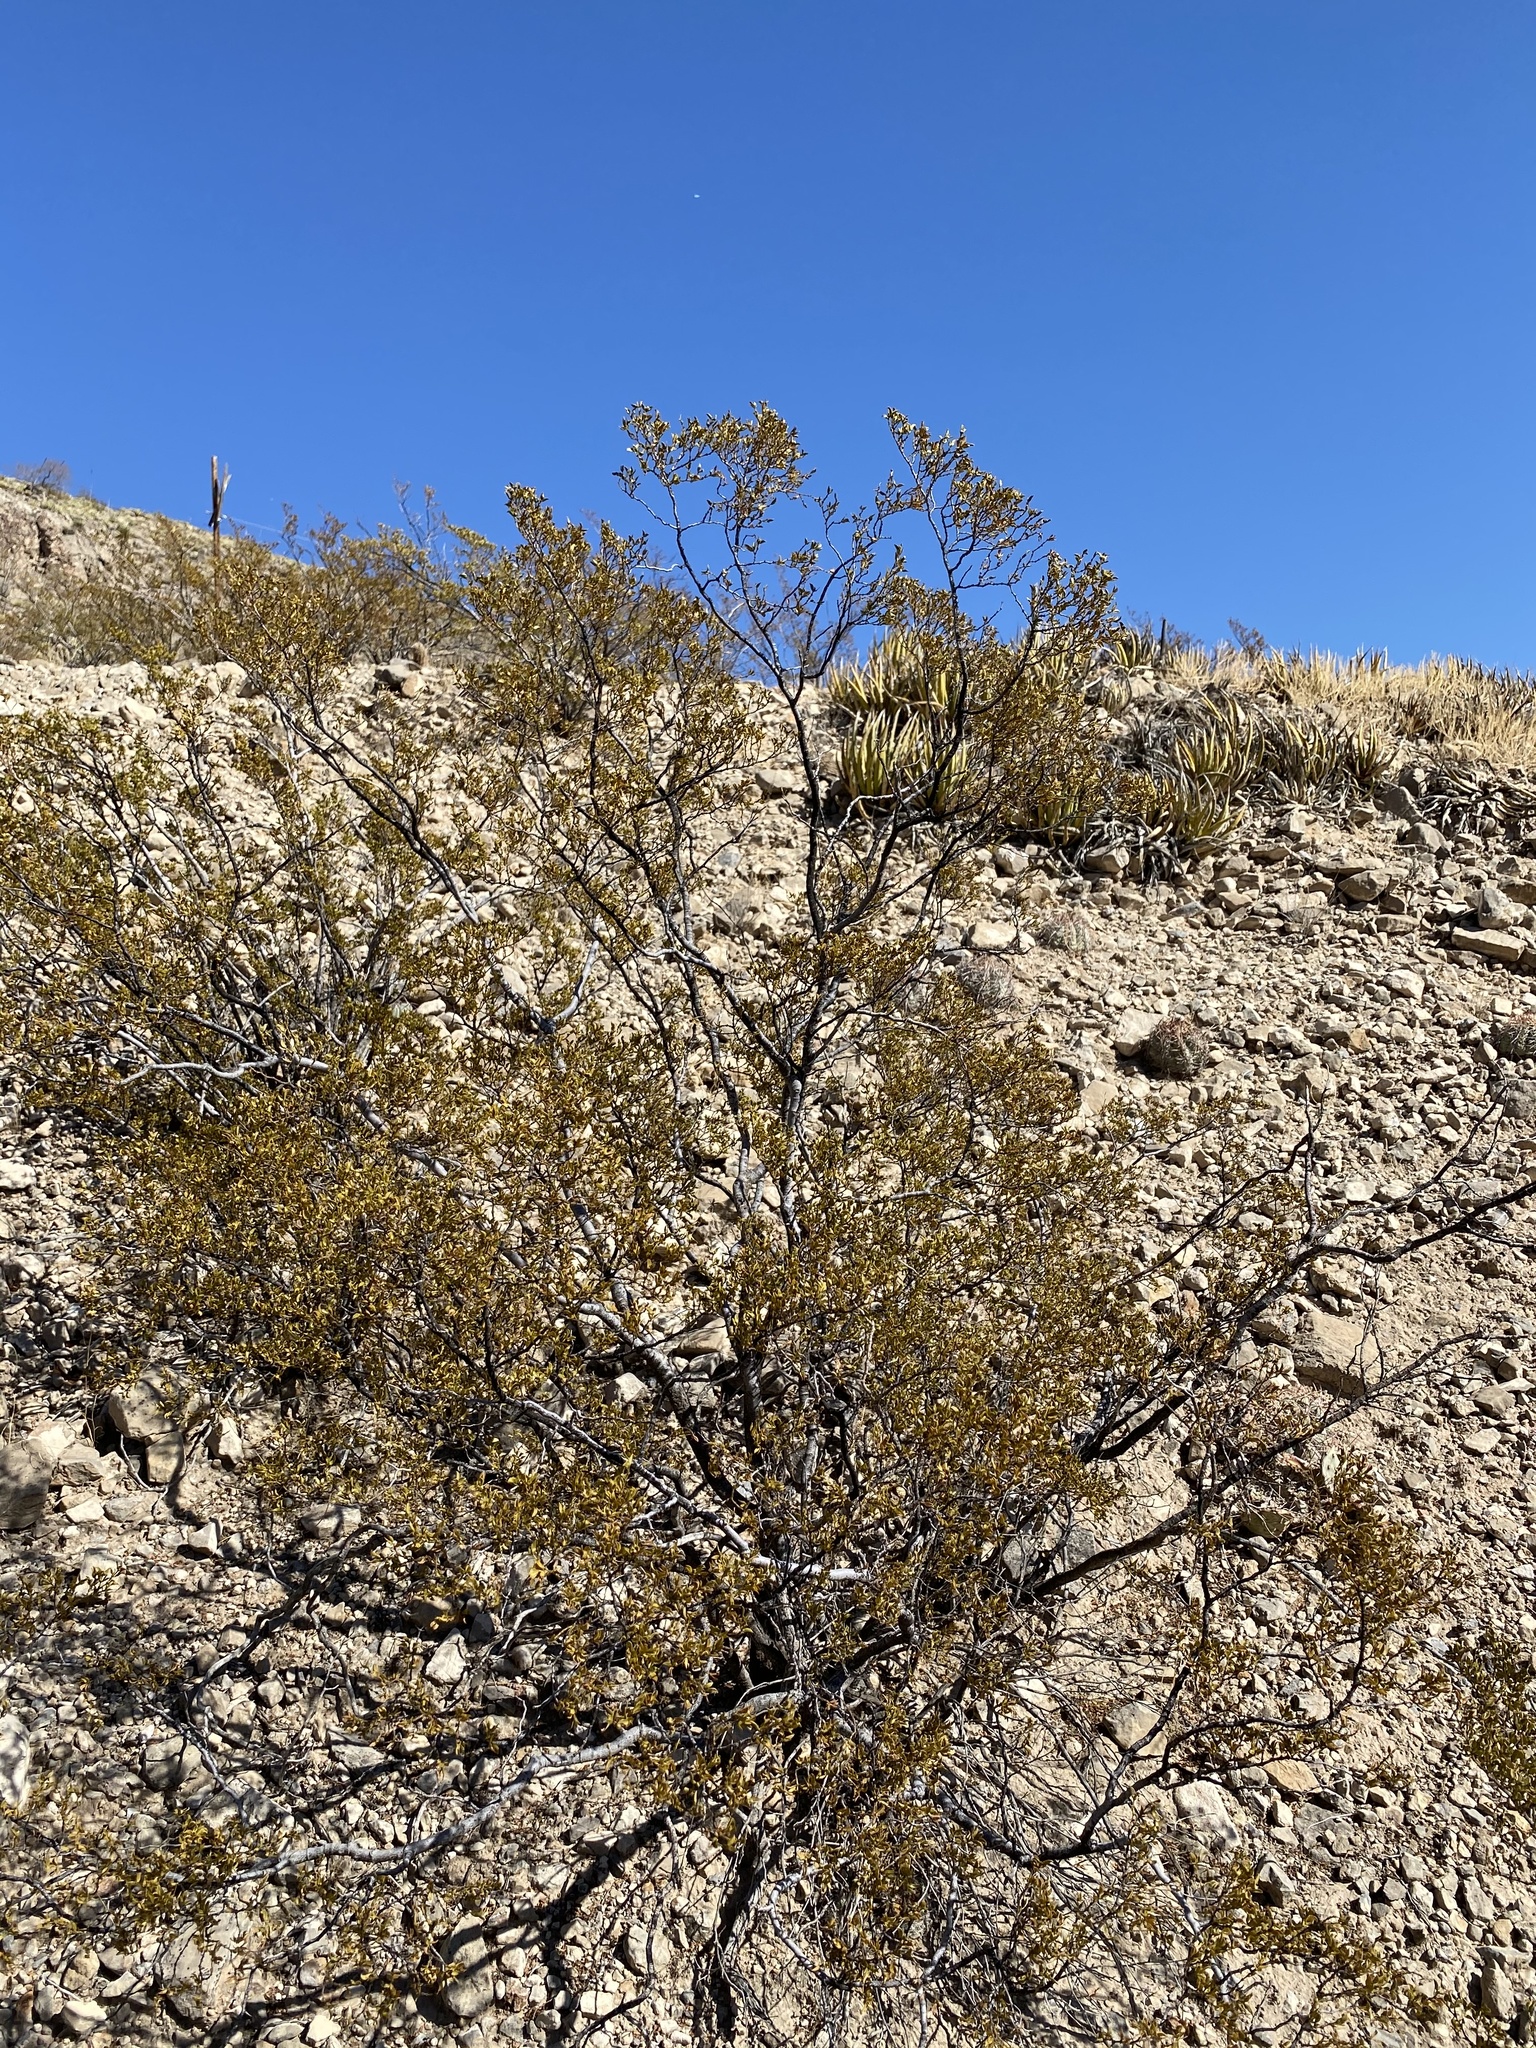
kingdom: Plantae
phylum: Tracheophyta
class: Magnoliopsida
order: Zygophyllales
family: Zygophyllaceae
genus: Larrea
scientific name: Larrea tridentata
